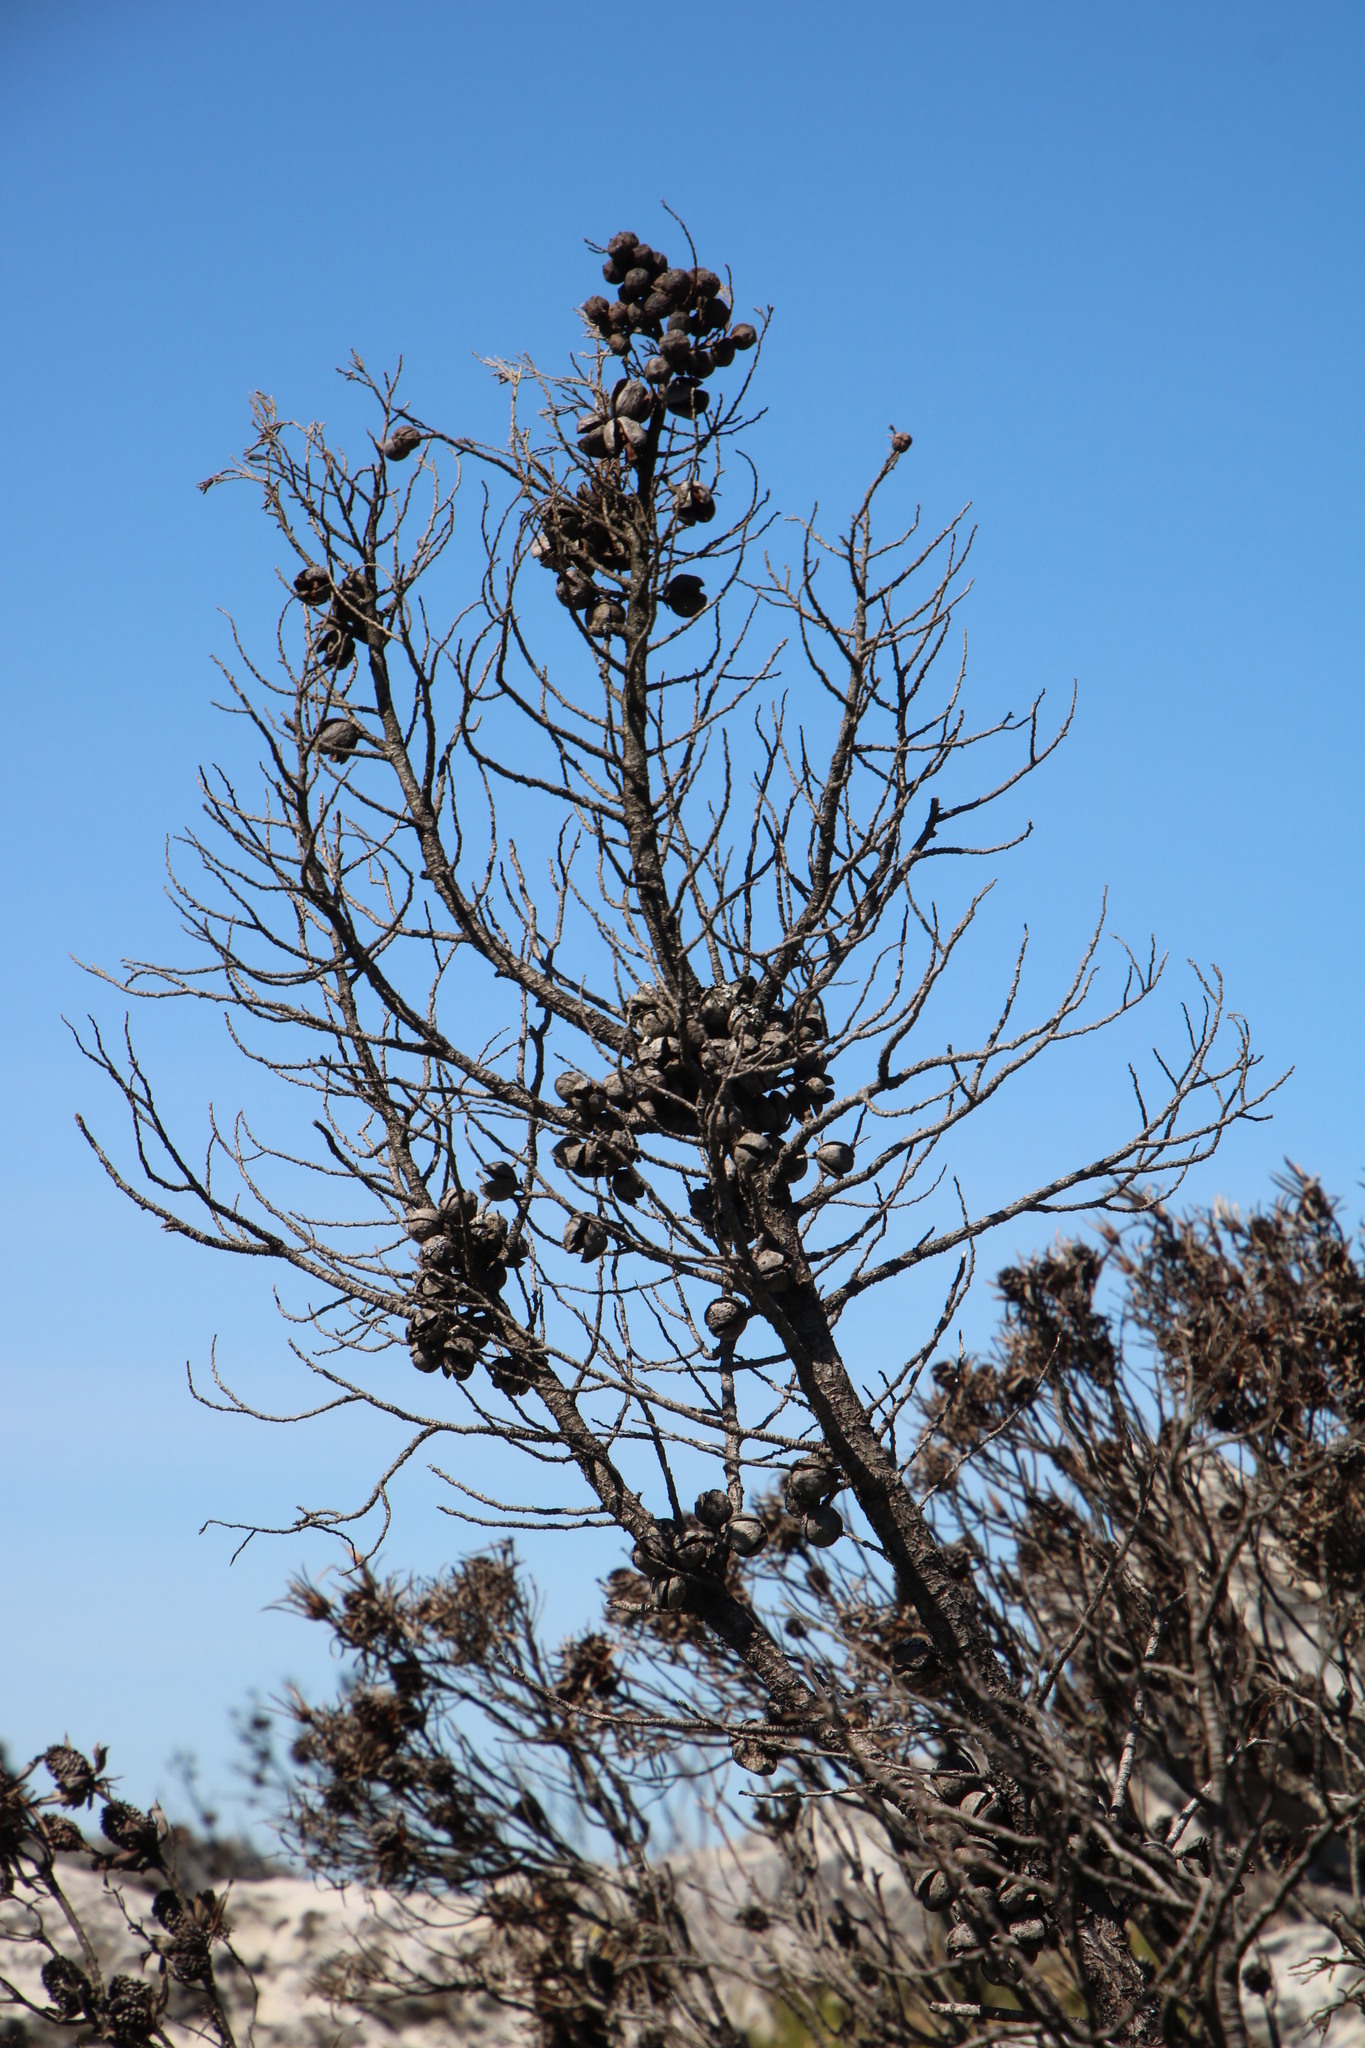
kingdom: Plantae
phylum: Tracheophyta
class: Pinopsida
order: Pinales
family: Cupressaceae
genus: Widdringtonia
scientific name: Widdringtonia nodiflora
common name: Cape cypress
